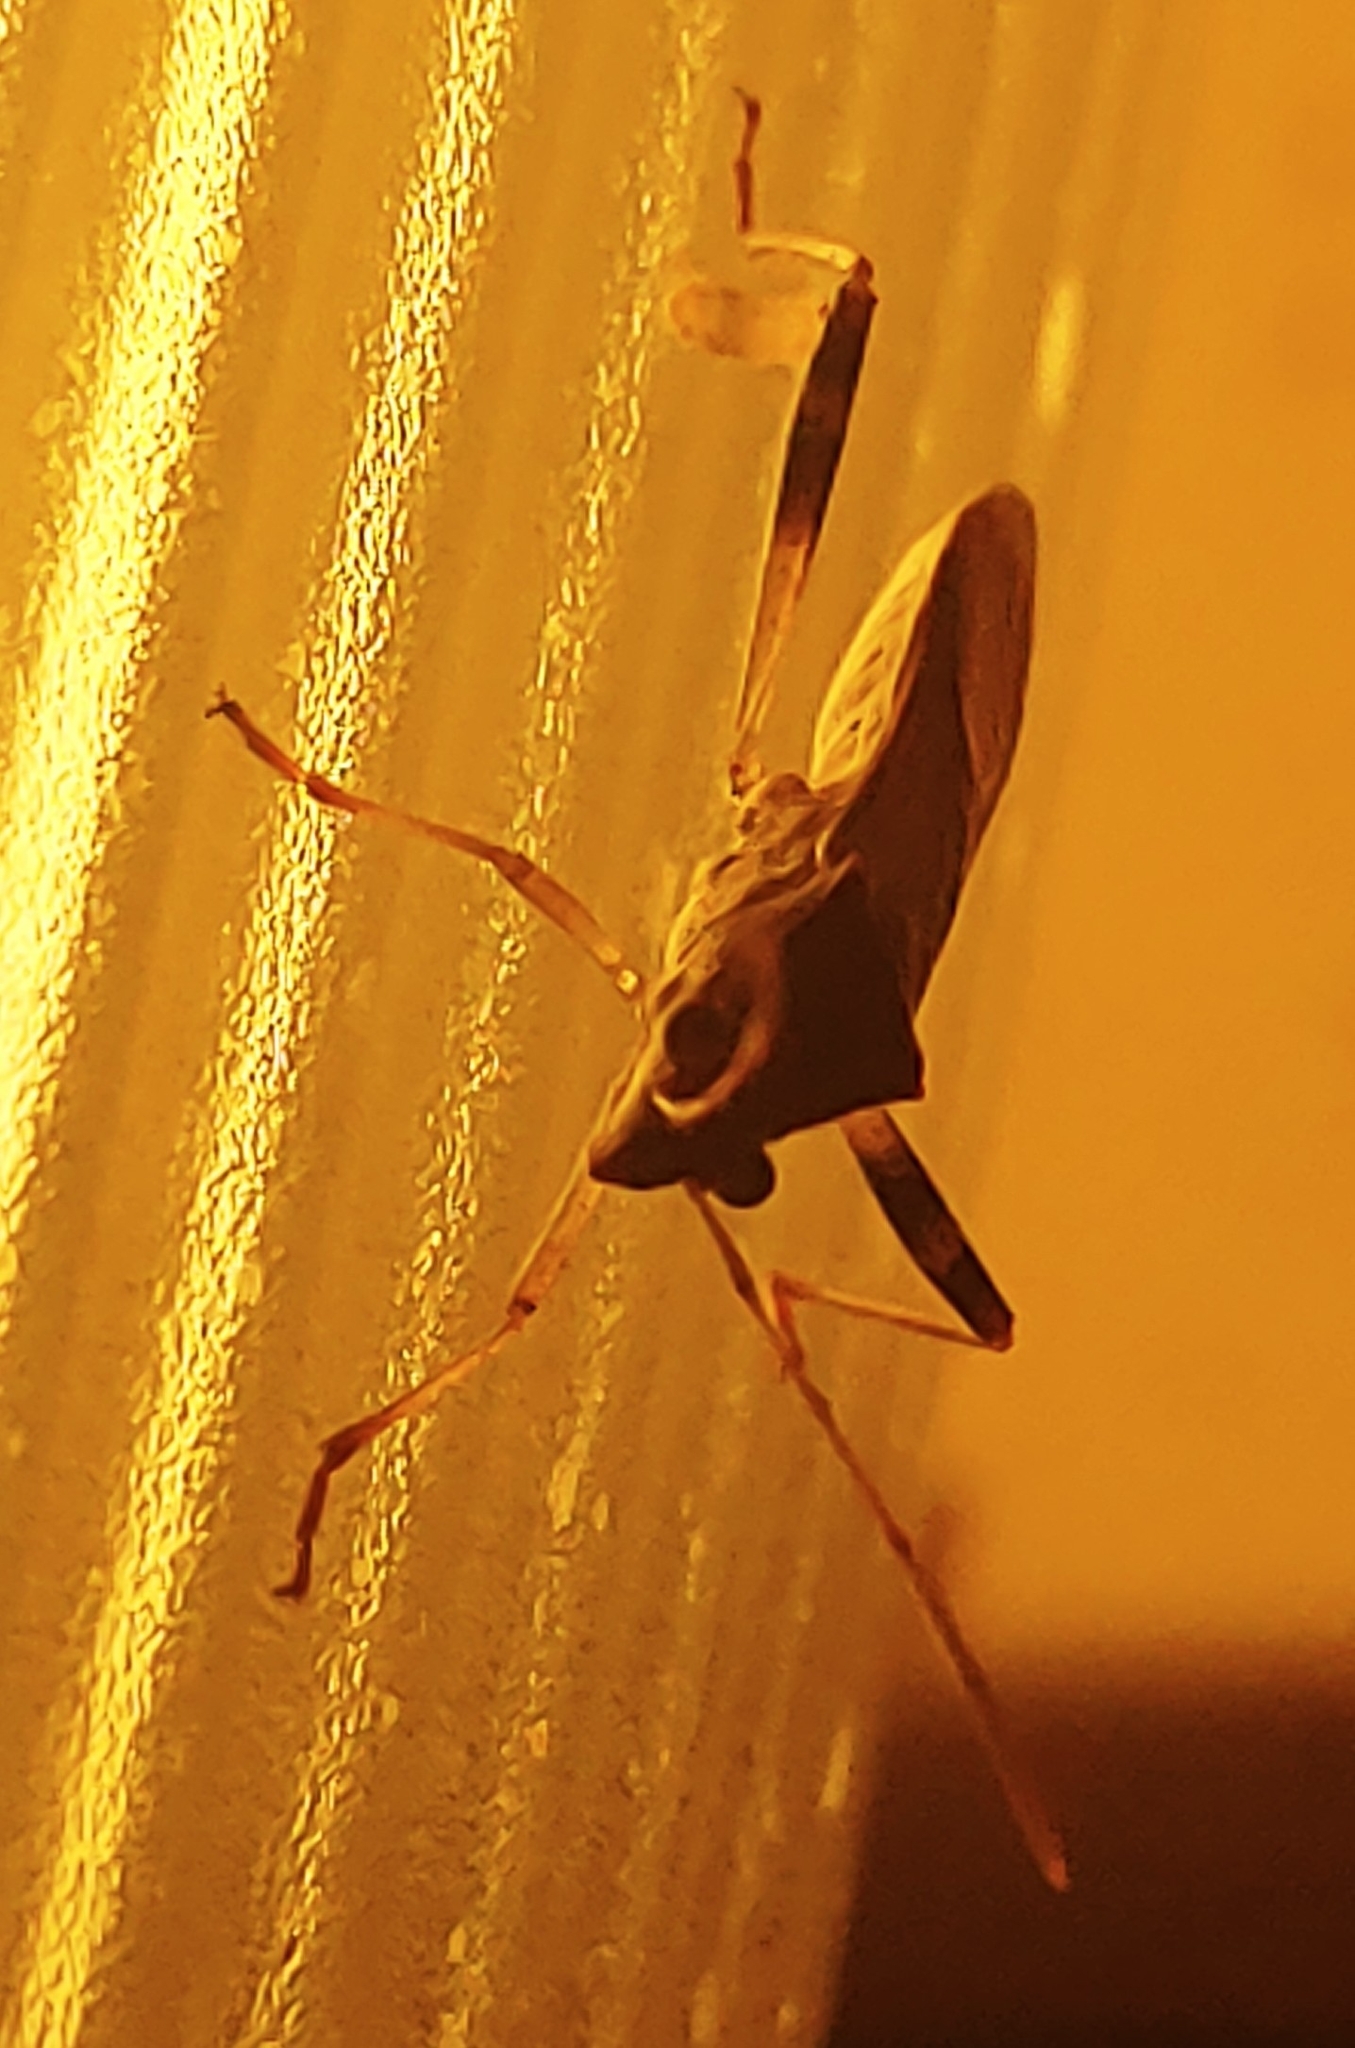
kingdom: Animalia
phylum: Arthropoda
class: Insecta
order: Hemiptera
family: Alydidae
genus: Burtinus
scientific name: Burtinus notatipennis
